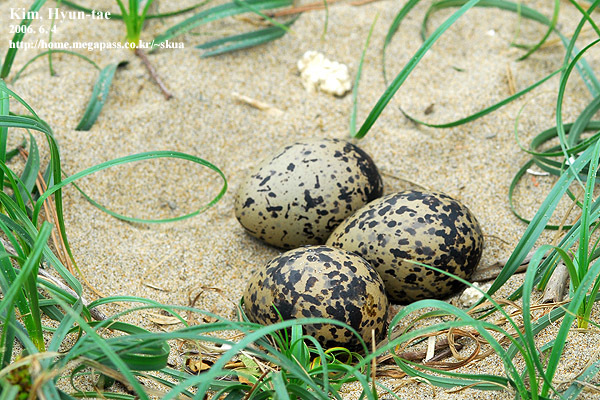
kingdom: Animalia
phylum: Chordata
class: Aves
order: Charadriiformes
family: Haematopodidae
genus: Haematopus
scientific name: Haematopus ostralegus
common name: Eurasian oystercatcher
